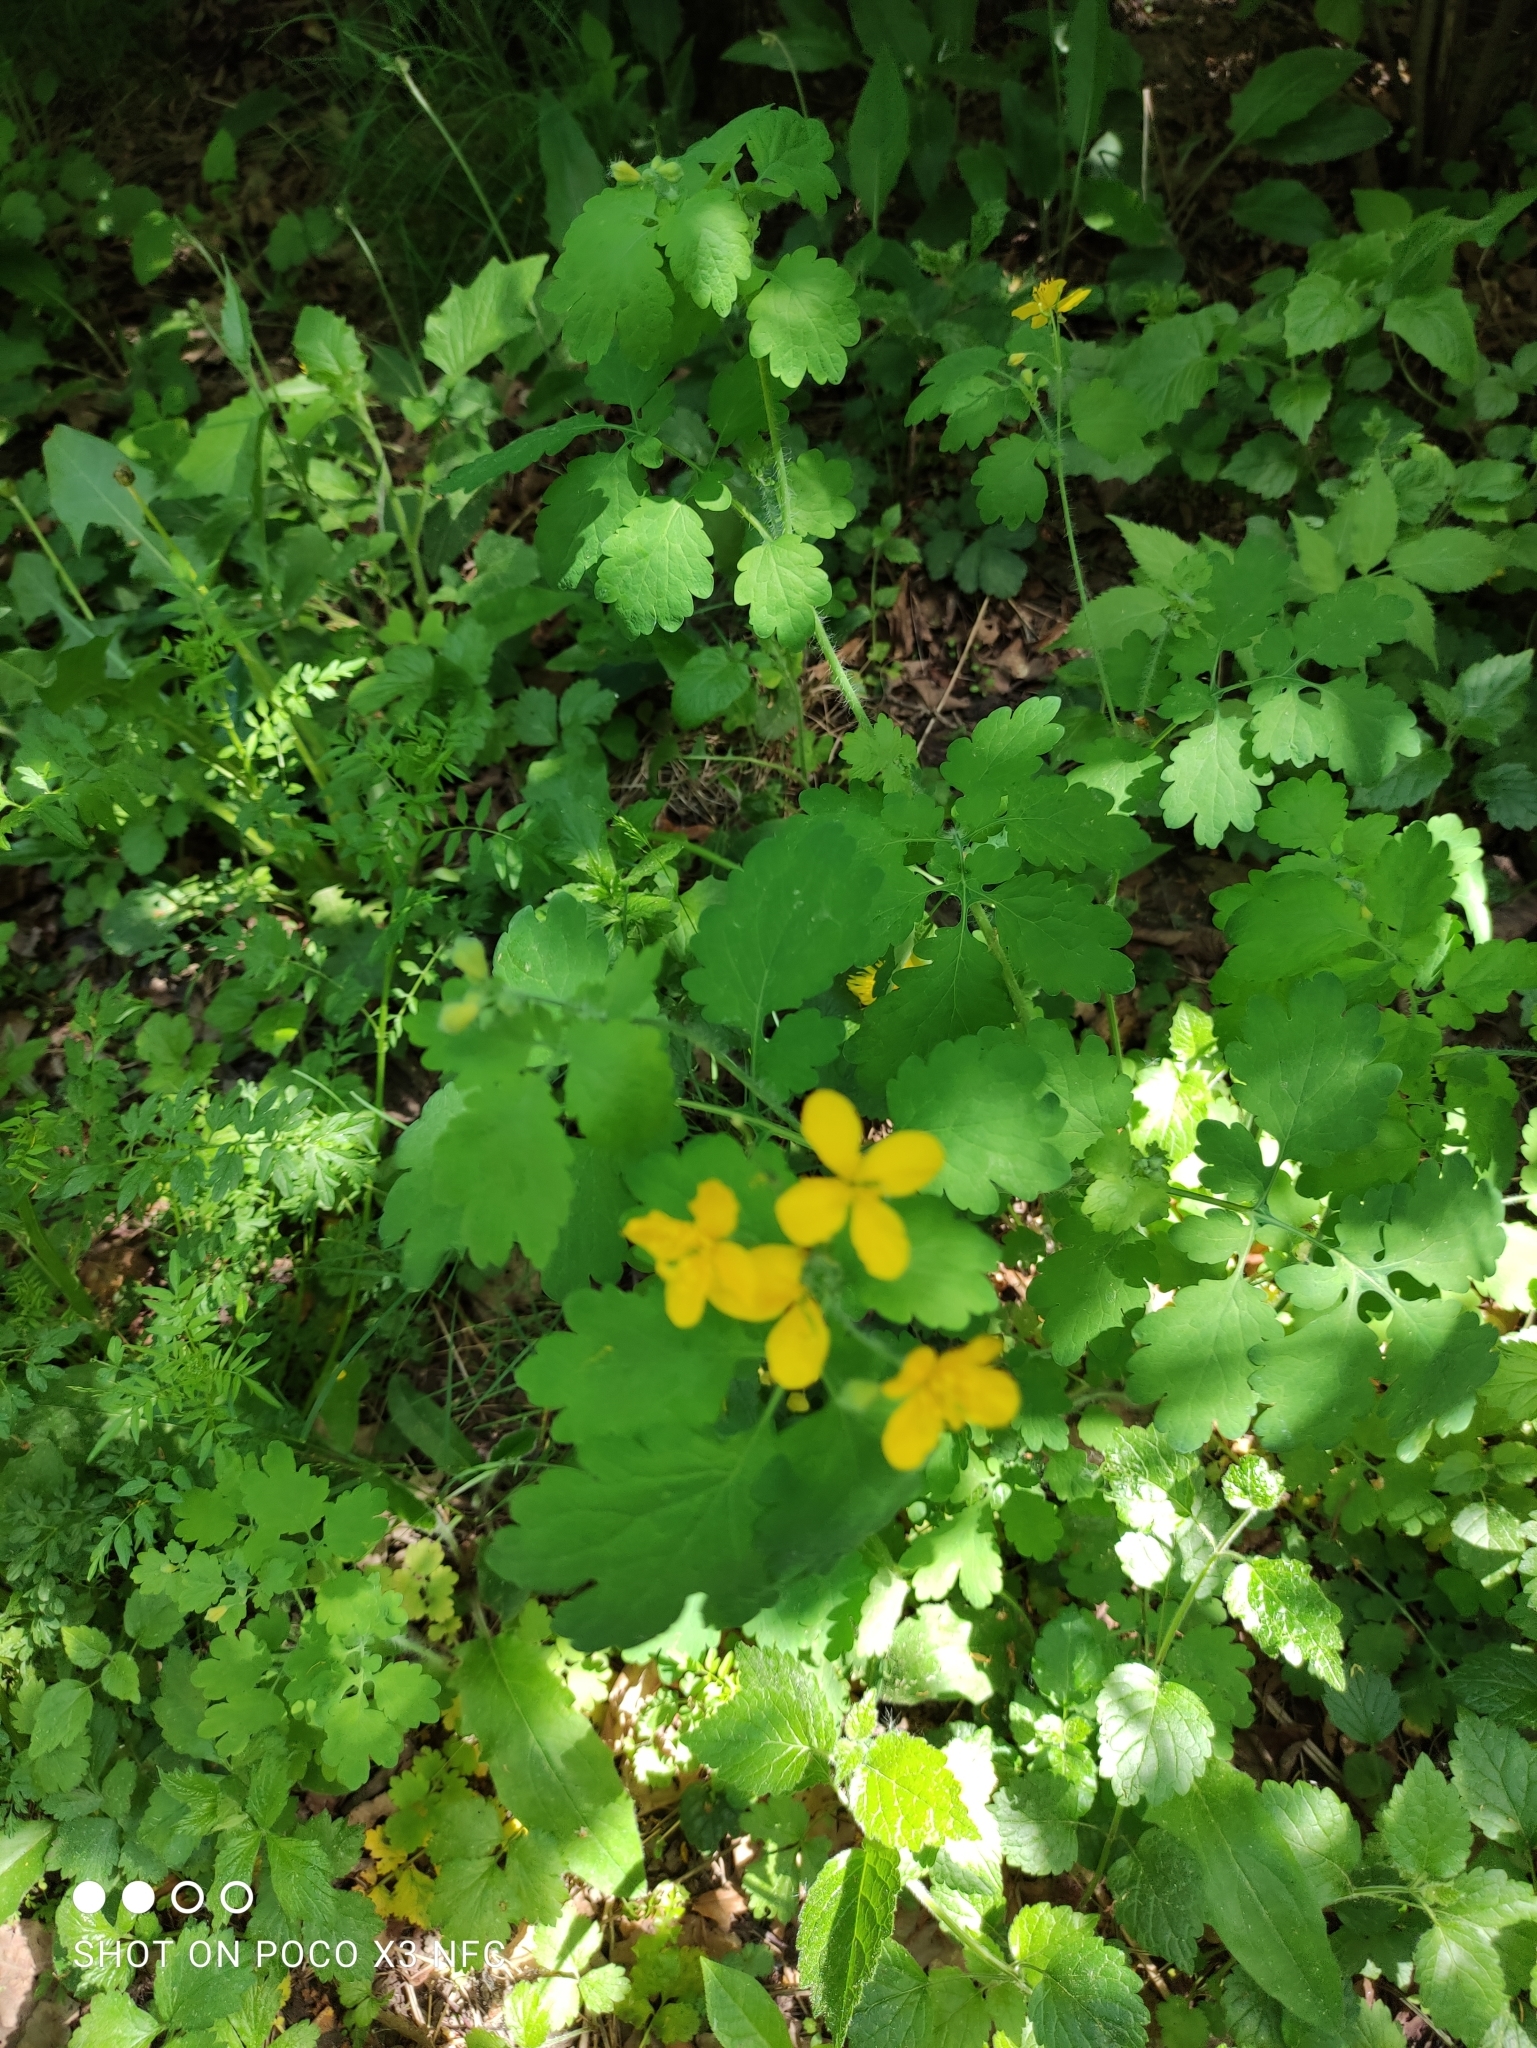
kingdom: Plantae
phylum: Tracheophyta
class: Magnoliopsida
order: Ranunculales
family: Papaveraceae
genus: Chelidonium
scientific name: Chelidonium majus
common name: Greater celandine
